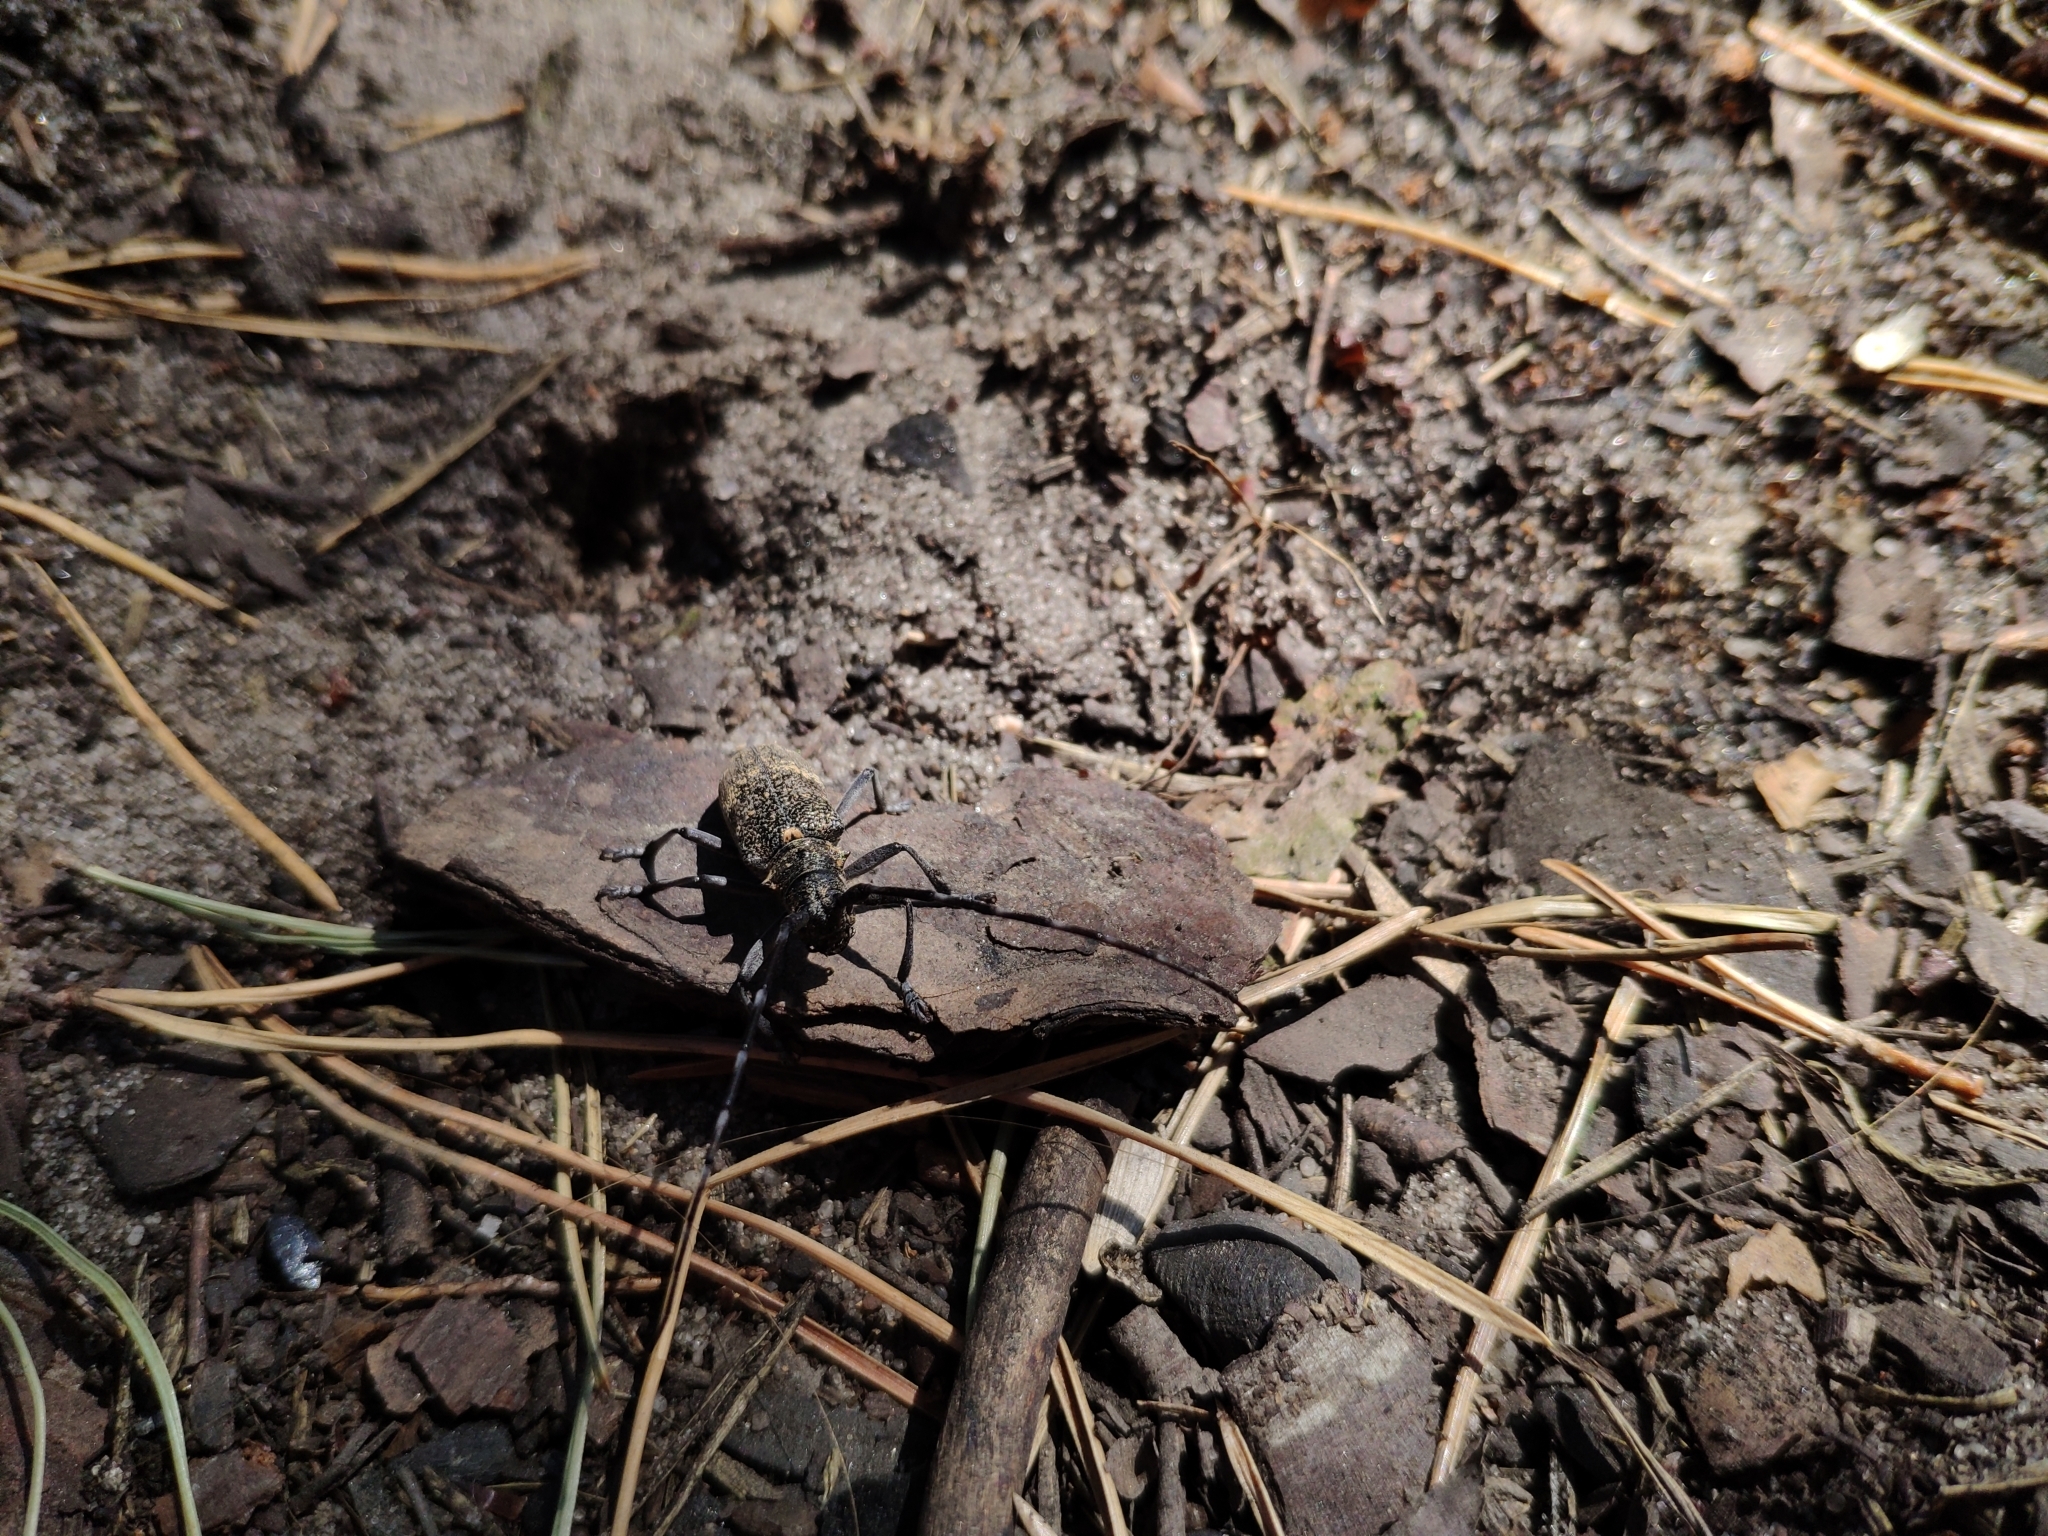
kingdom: Animalia
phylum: Arthropoda
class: Insecta
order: Coleoptera
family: Cerambycidae
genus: Monochamus
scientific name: Monochamus galloprovincialis
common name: Pine sawyer
